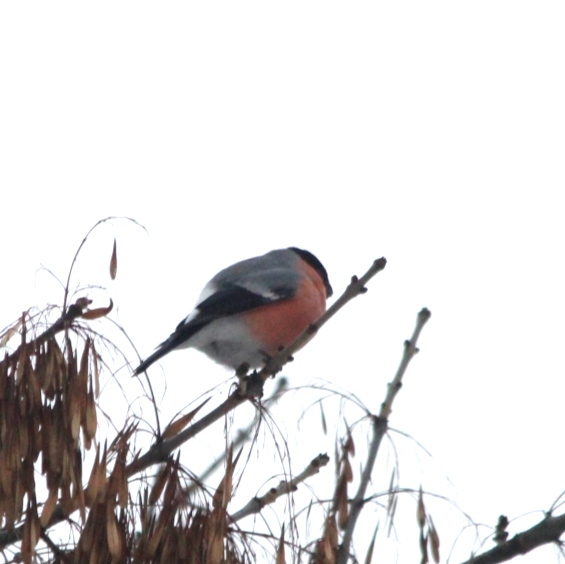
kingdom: Animalia
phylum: Chordata
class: Aves
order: Passeriformes
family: Fringillidae
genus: Pyrrhula
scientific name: Pyrrhula pyrrhula
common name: Eurasian bullfinch
